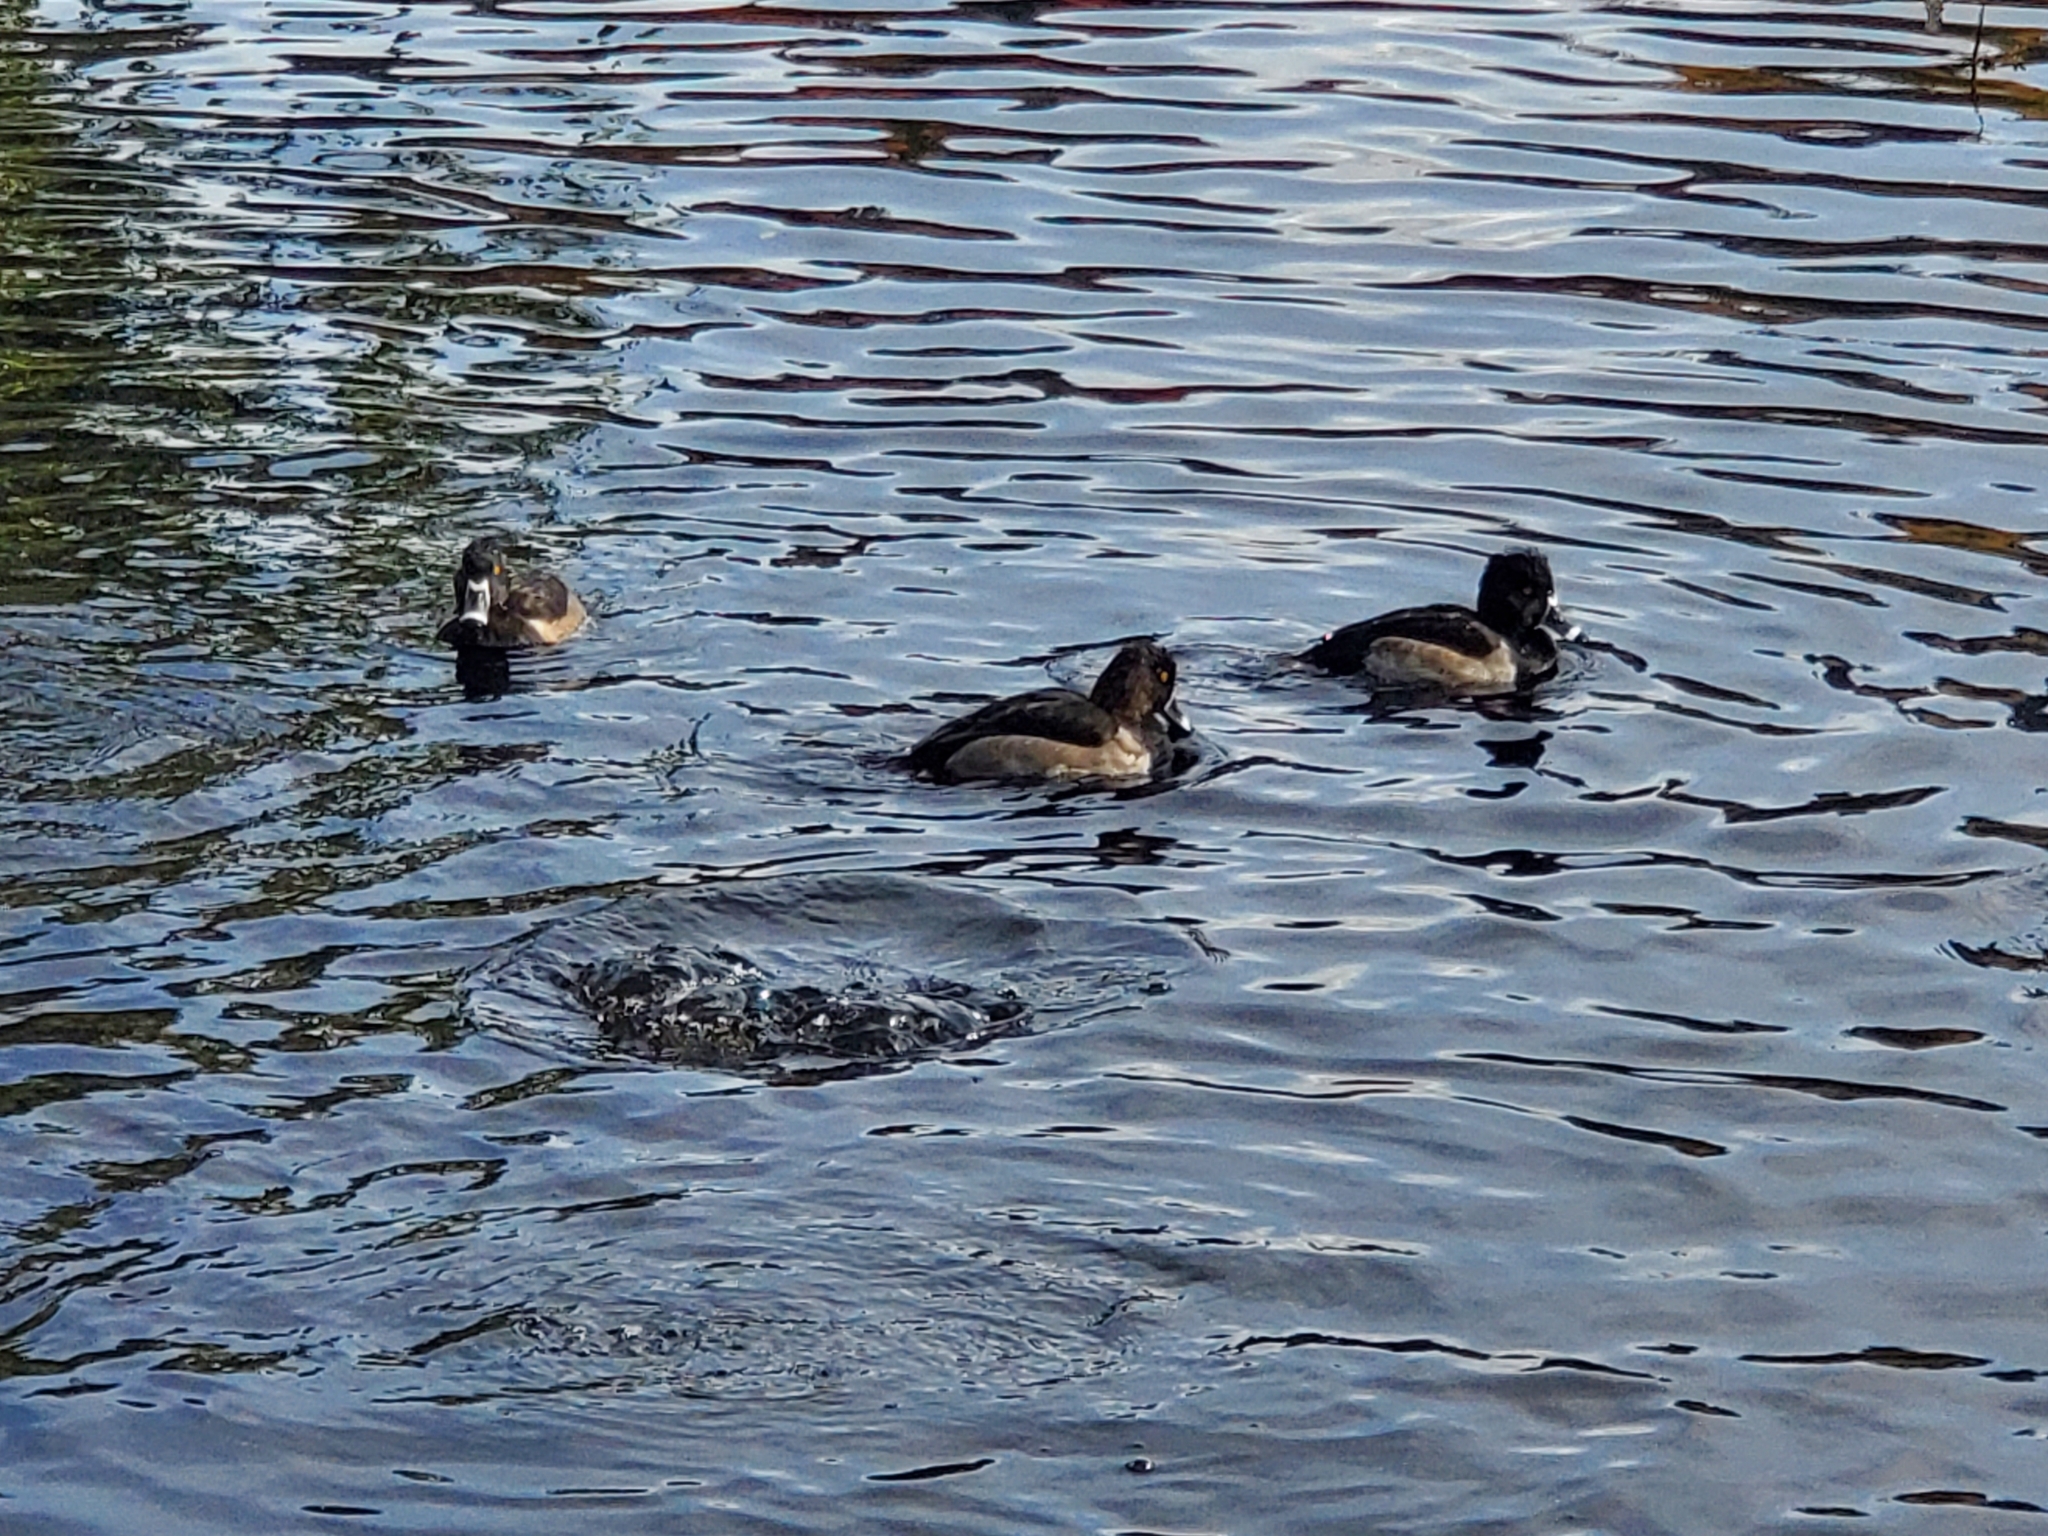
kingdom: Animalia
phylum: Chordata
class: Aves
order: Anseriformes
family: Anatidae
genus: Aythya
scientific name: Aythya collaris
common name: Ring-necked duck
